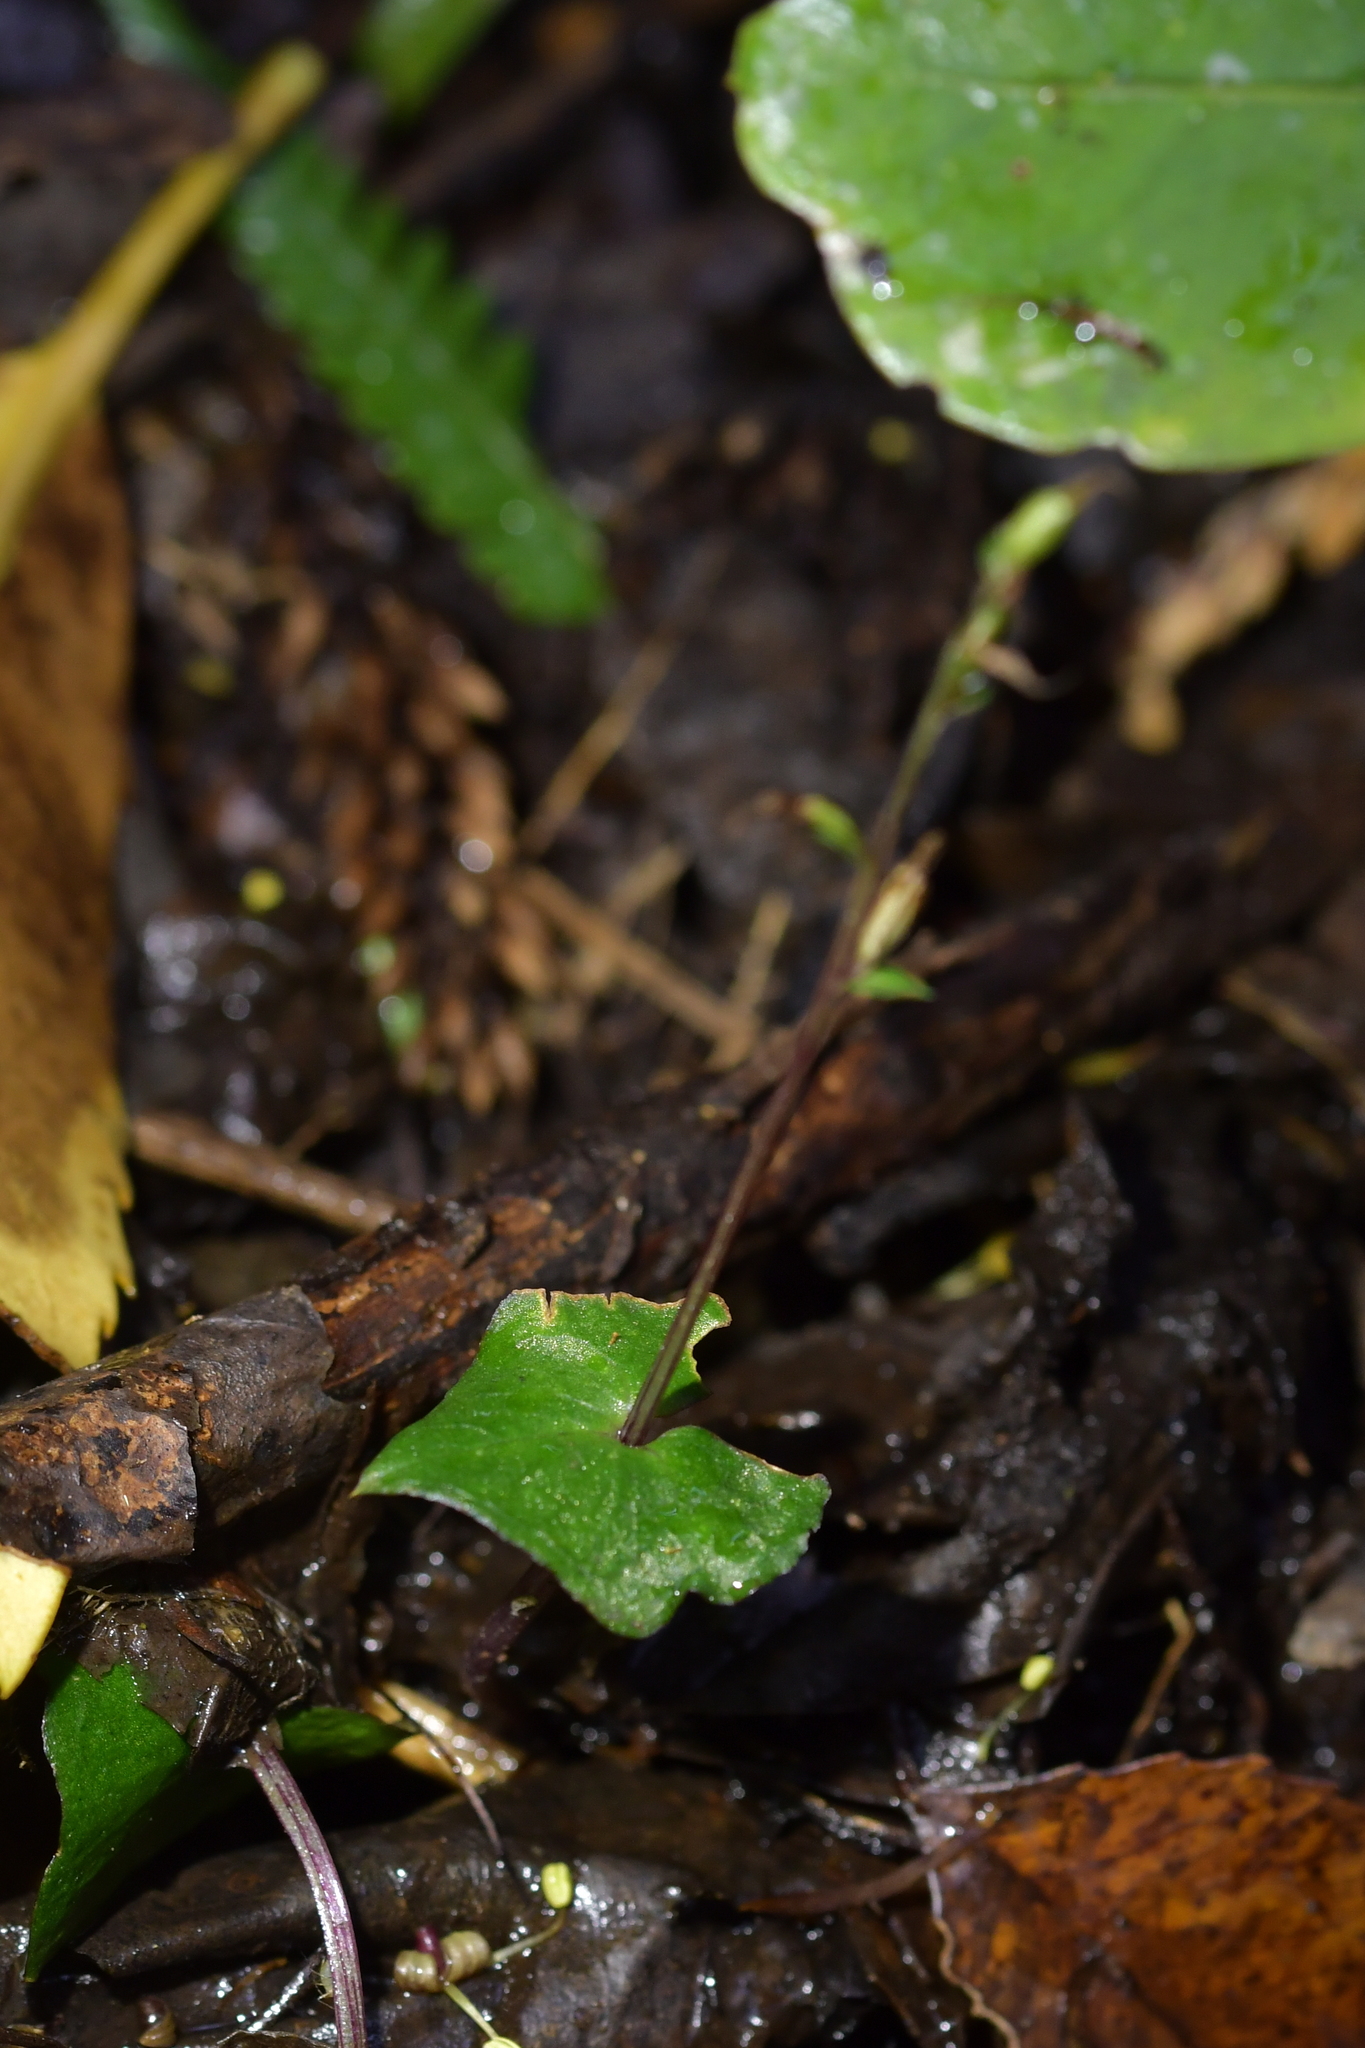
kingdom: Plantae
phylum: Tracheophyta
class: Liliopsida
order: Asparagales
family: Orchidaceae
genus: Acianthus
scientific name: Acianthus sinclairii
